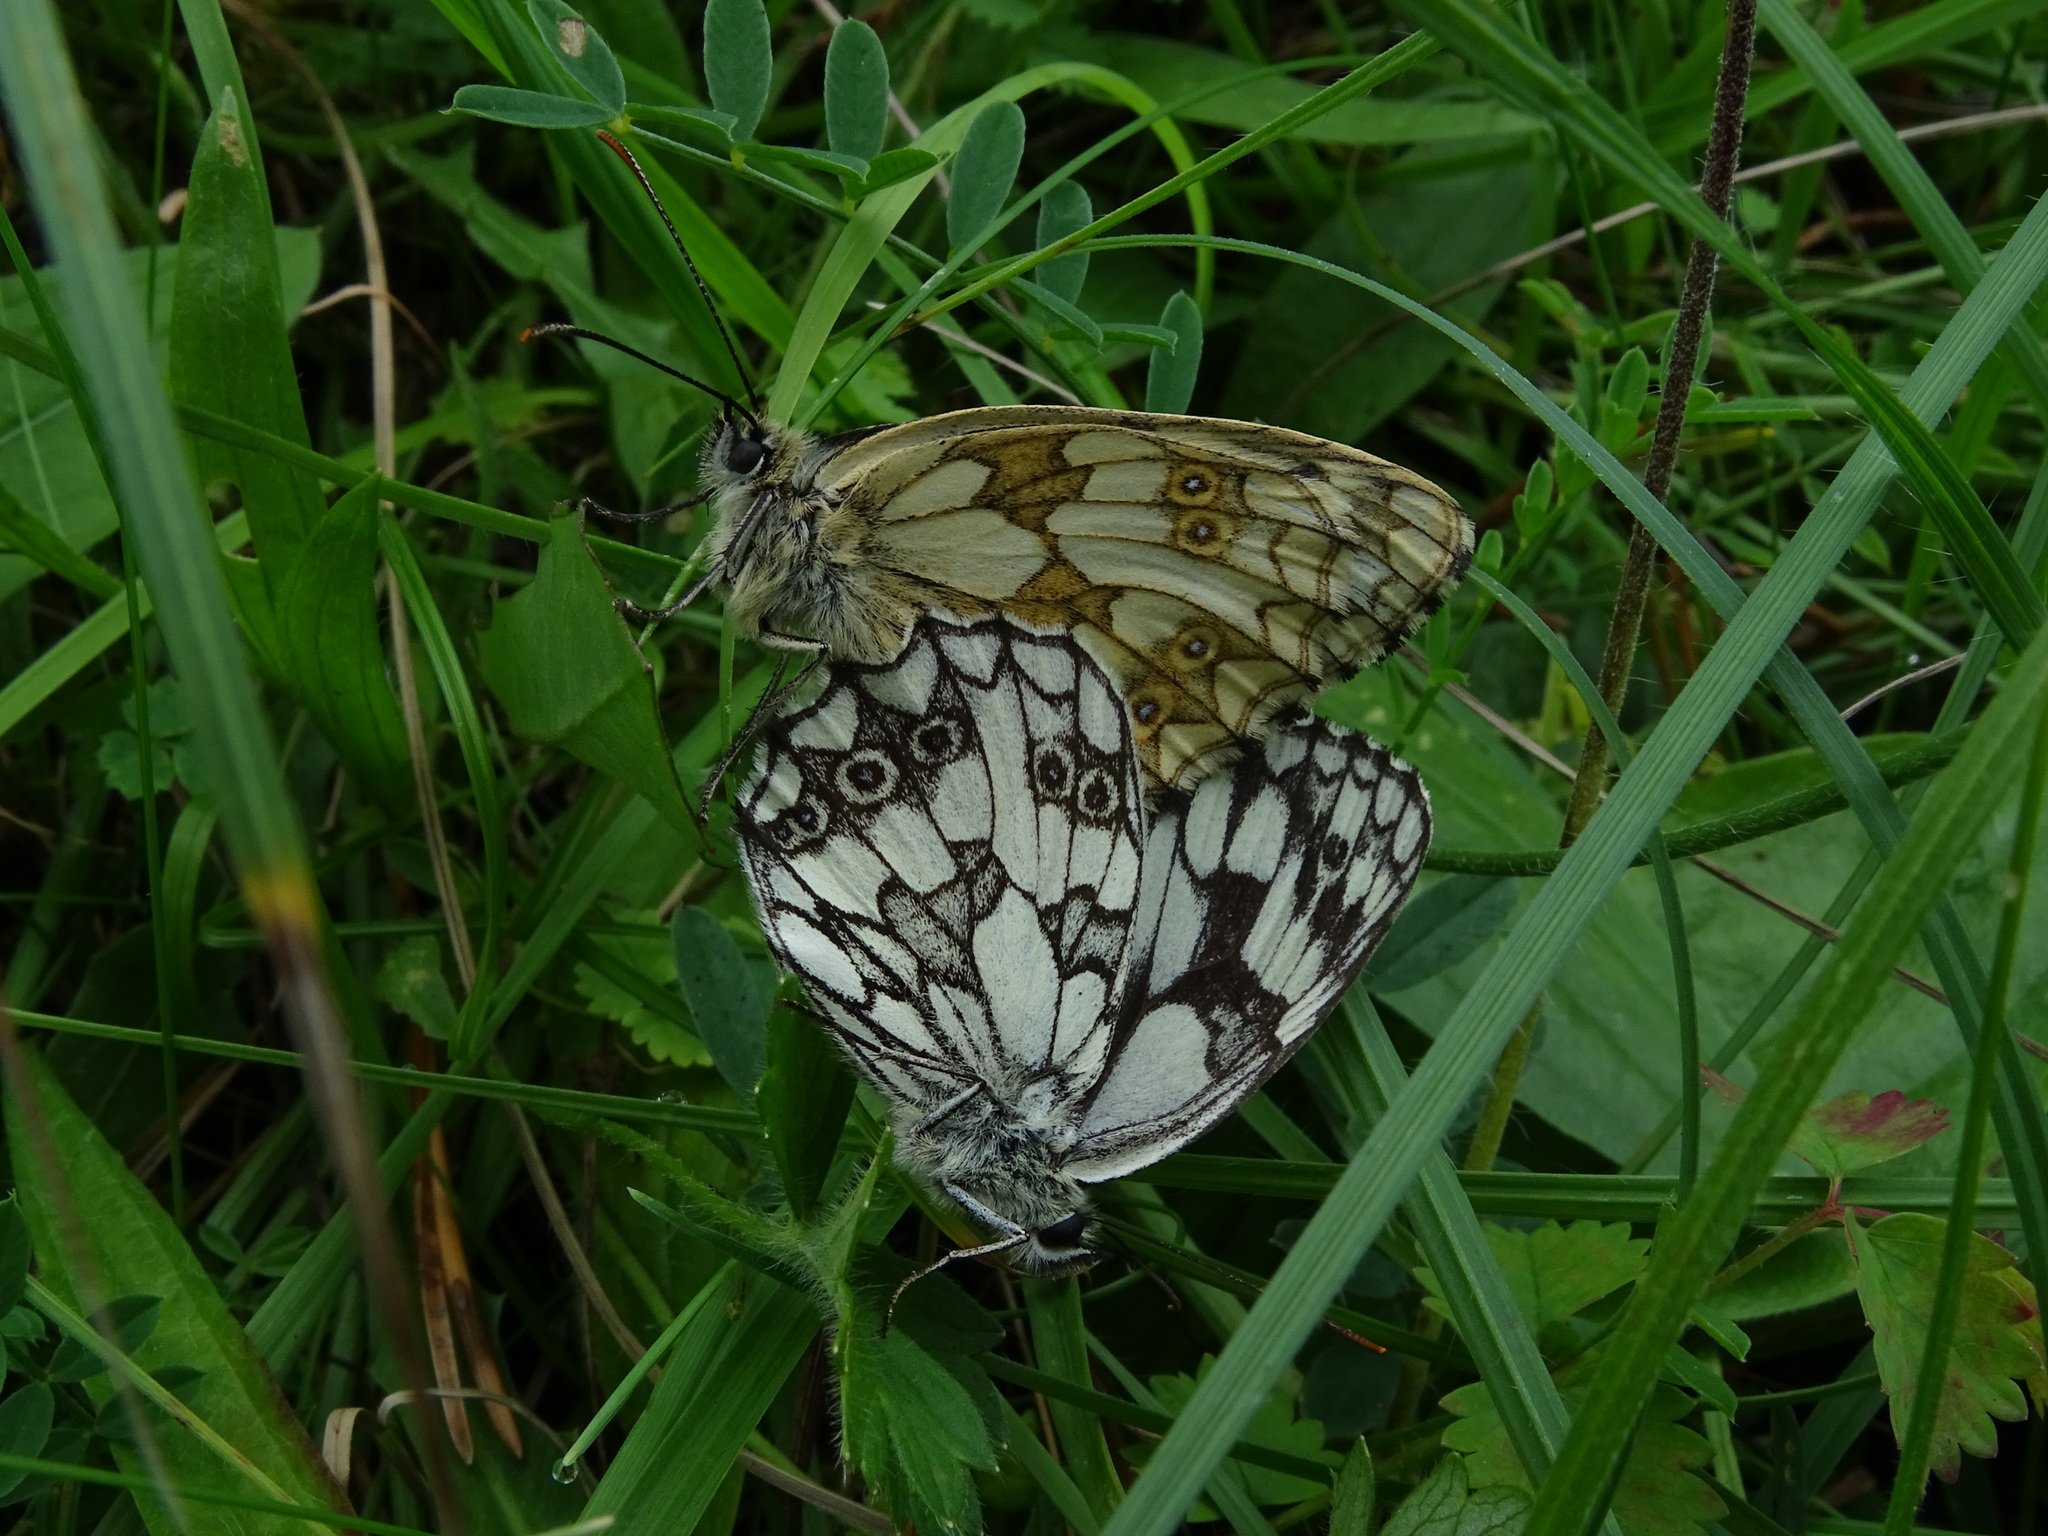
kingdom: Animalia
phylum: Arthropoda
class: Insecta
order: Lepidoptera
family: Nymphalidae
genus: Melanargia
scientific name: Melanargia galathea
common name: Marbled white
